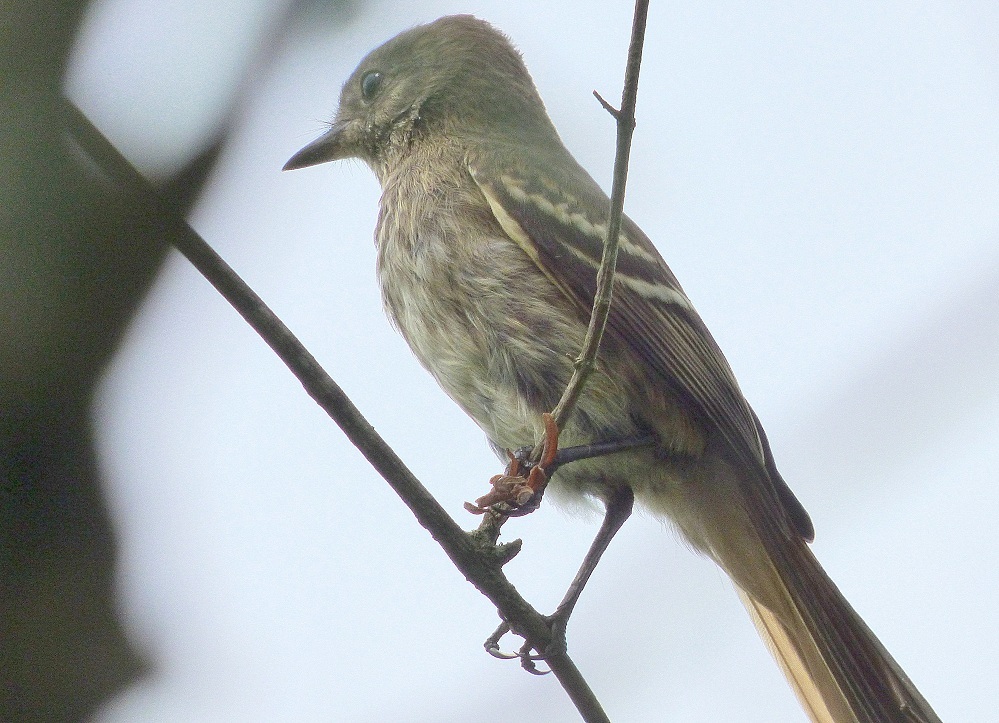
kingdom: Animalia
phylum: Chordata
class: Aves
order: Passeriformes
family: Tyrannidae
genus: Knipolegus
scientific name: Knipolegus hudsoni
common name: Hudson's black tyrant
